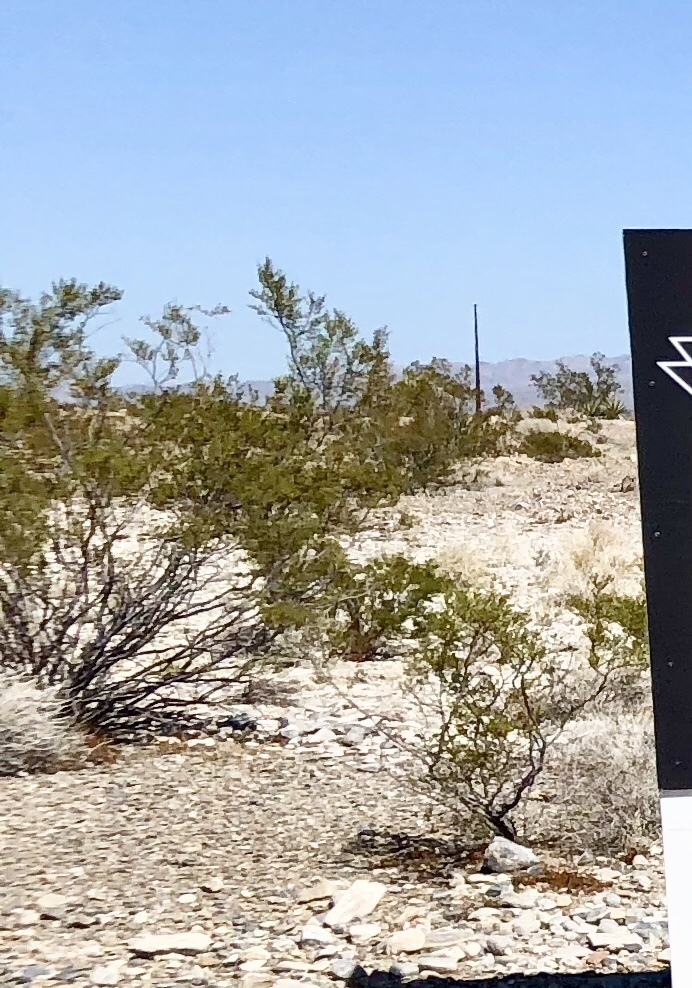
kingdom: Plantae
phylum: Tracheophyta
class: Magnoliopsida
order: Zygophyllales
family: Zygophyllaceae
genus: Larrea
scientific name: Larrea tridentata
